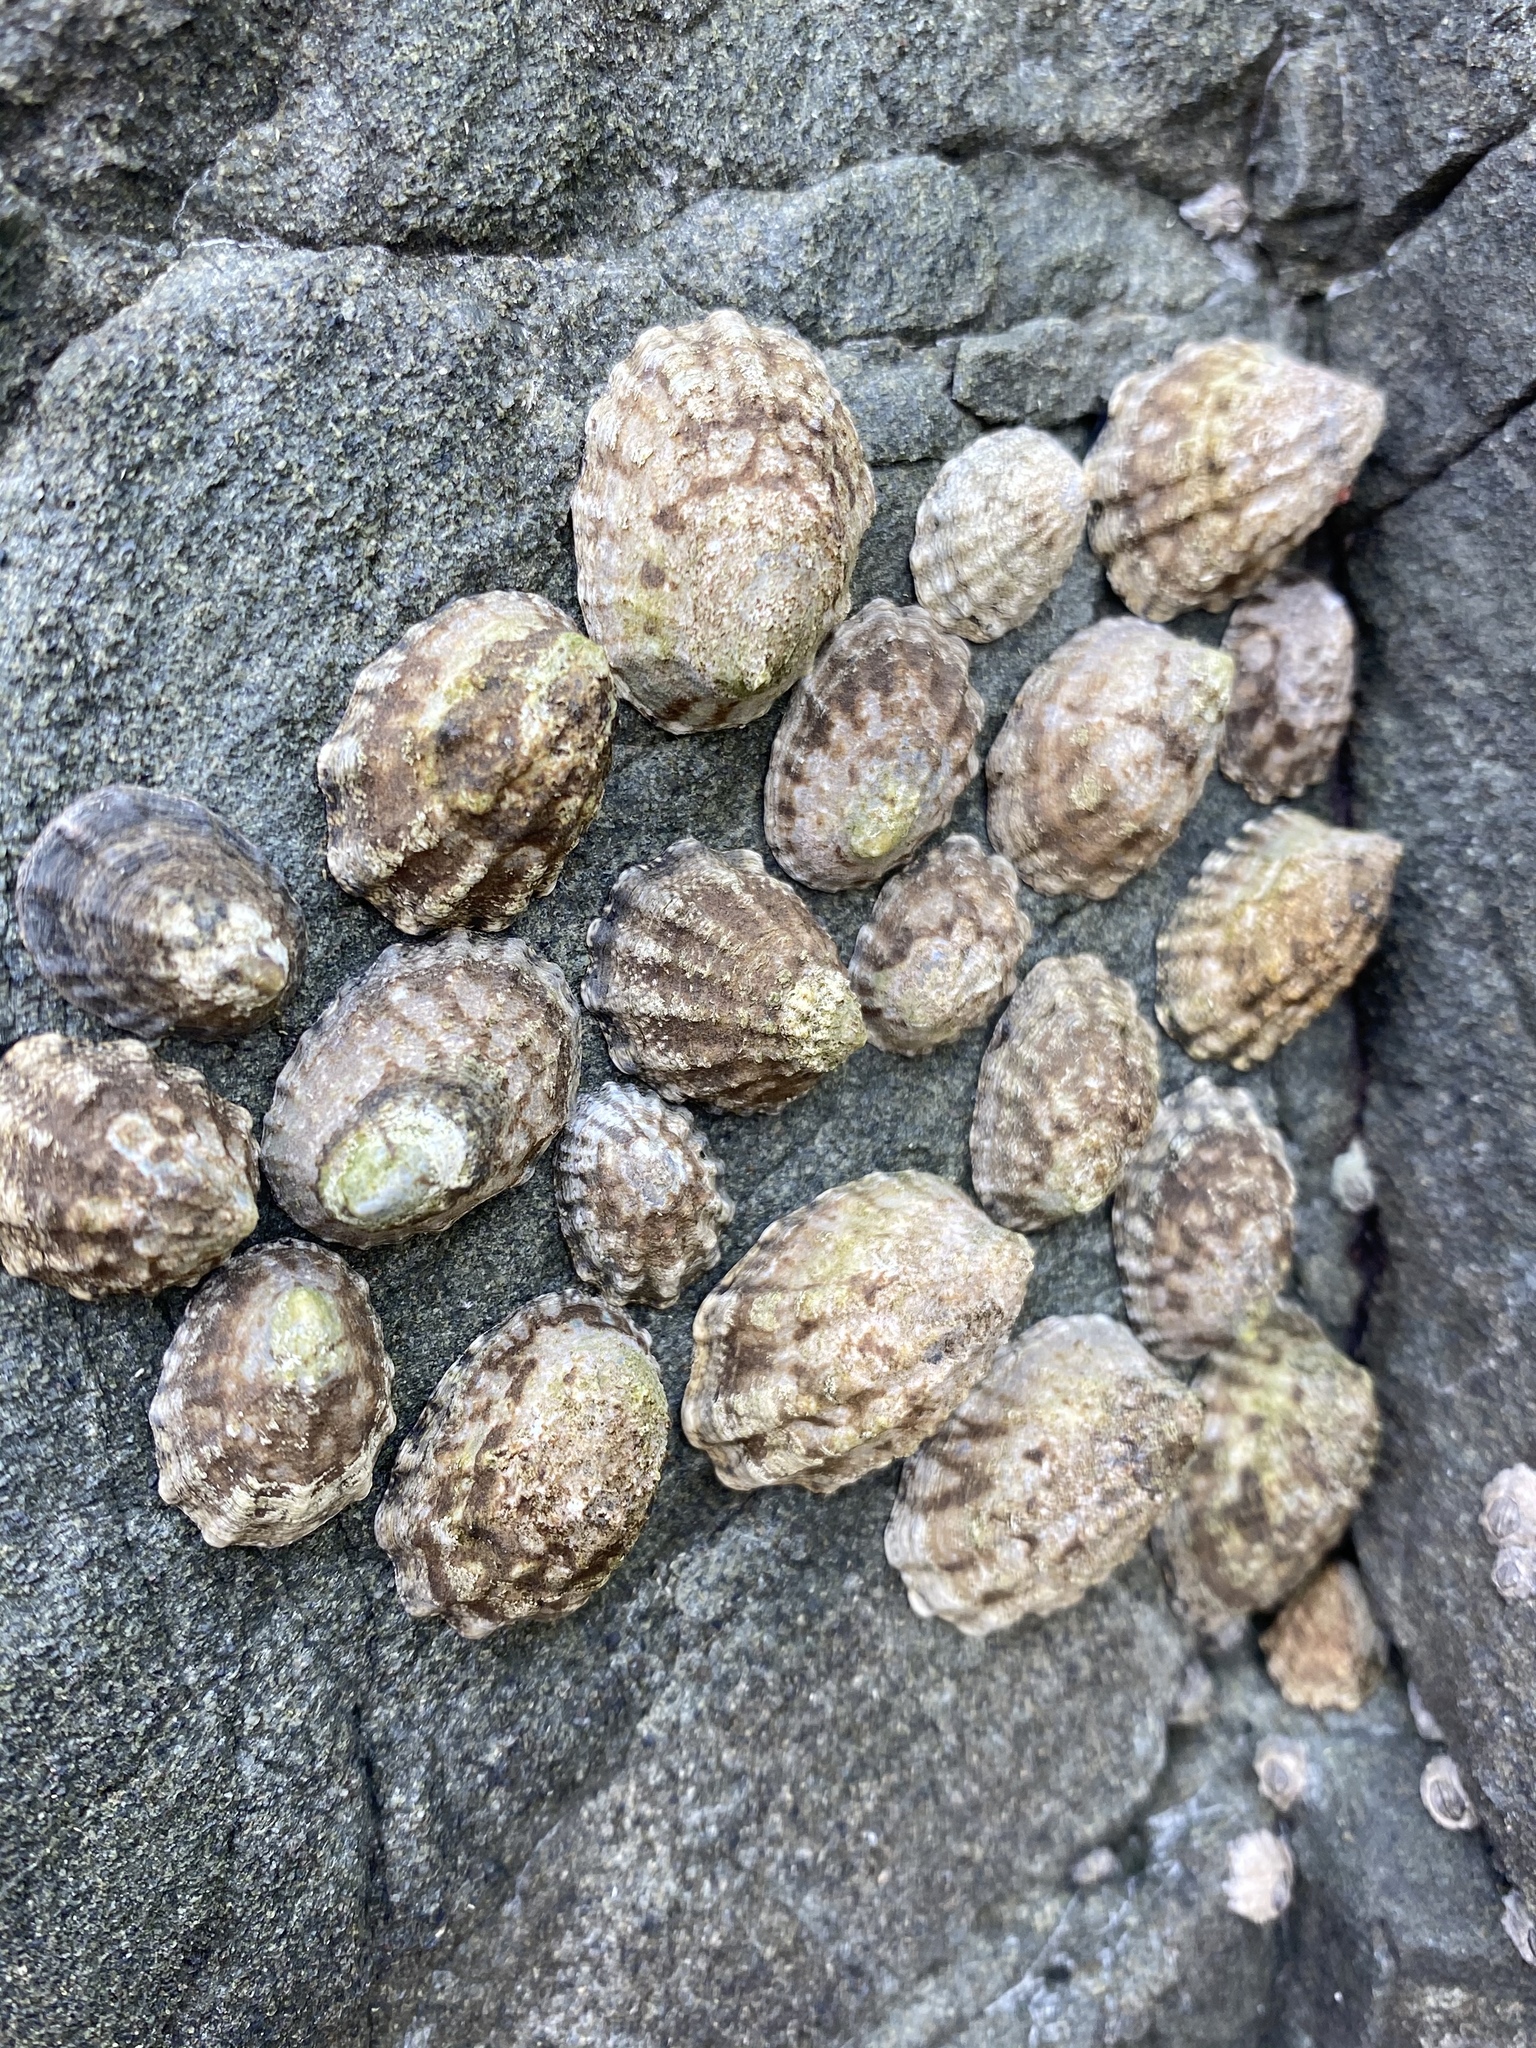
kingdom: Animalia
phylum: Mollusca
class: Gastropoda
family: Lottiidae
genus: Lottia
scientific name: Lottia
